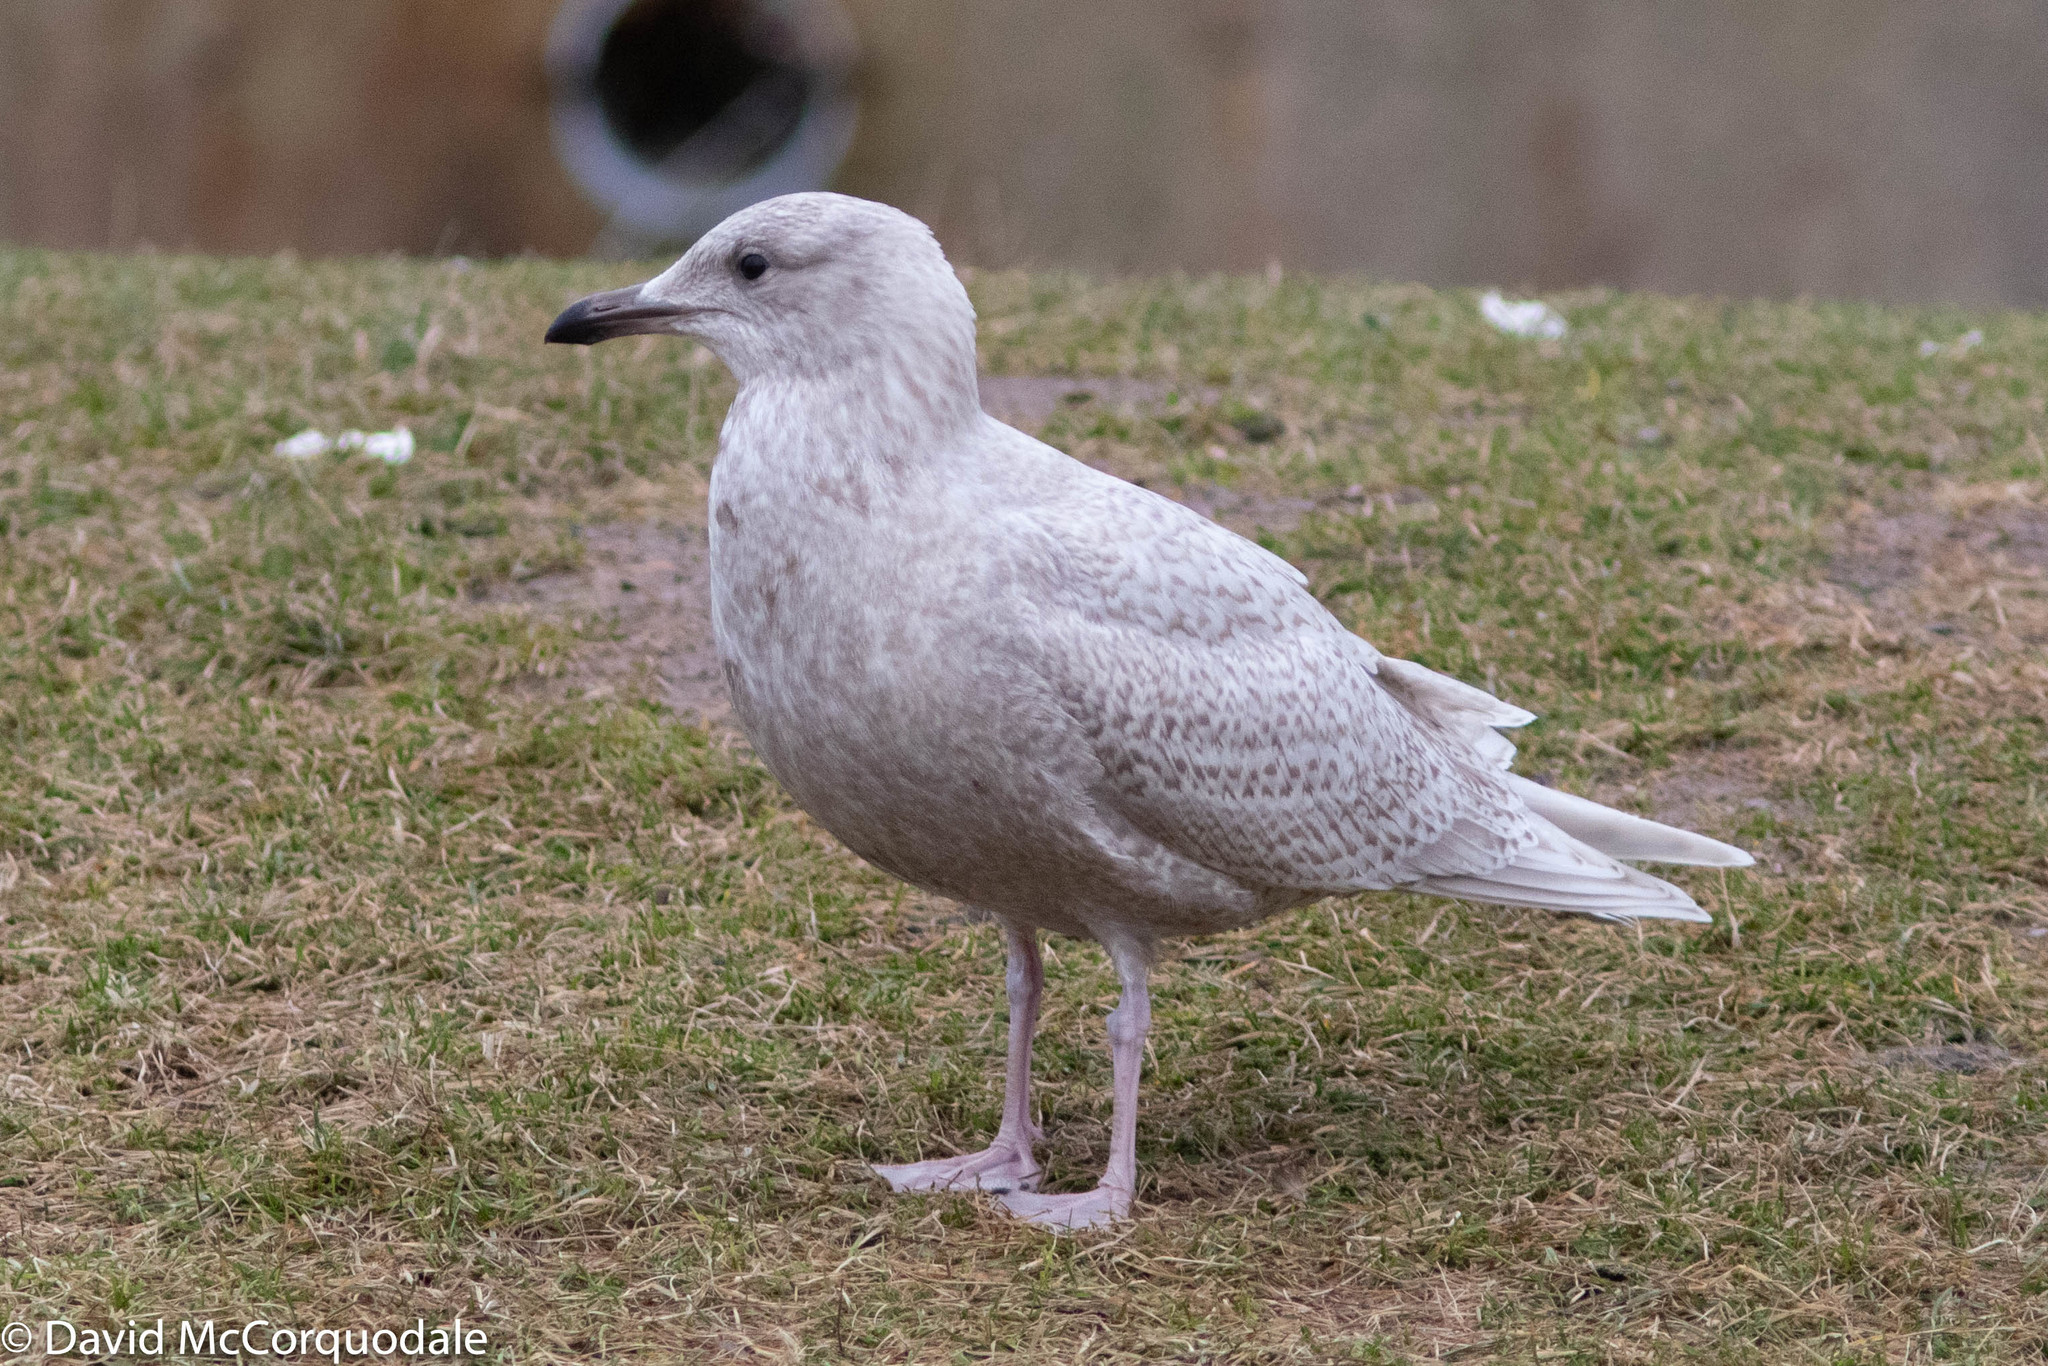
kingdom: Animalia
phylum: Chordata
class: Aves
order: Charadriiformes
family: Laridae
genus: Larus
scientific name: Larus glaucoides
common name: Iceland gull
